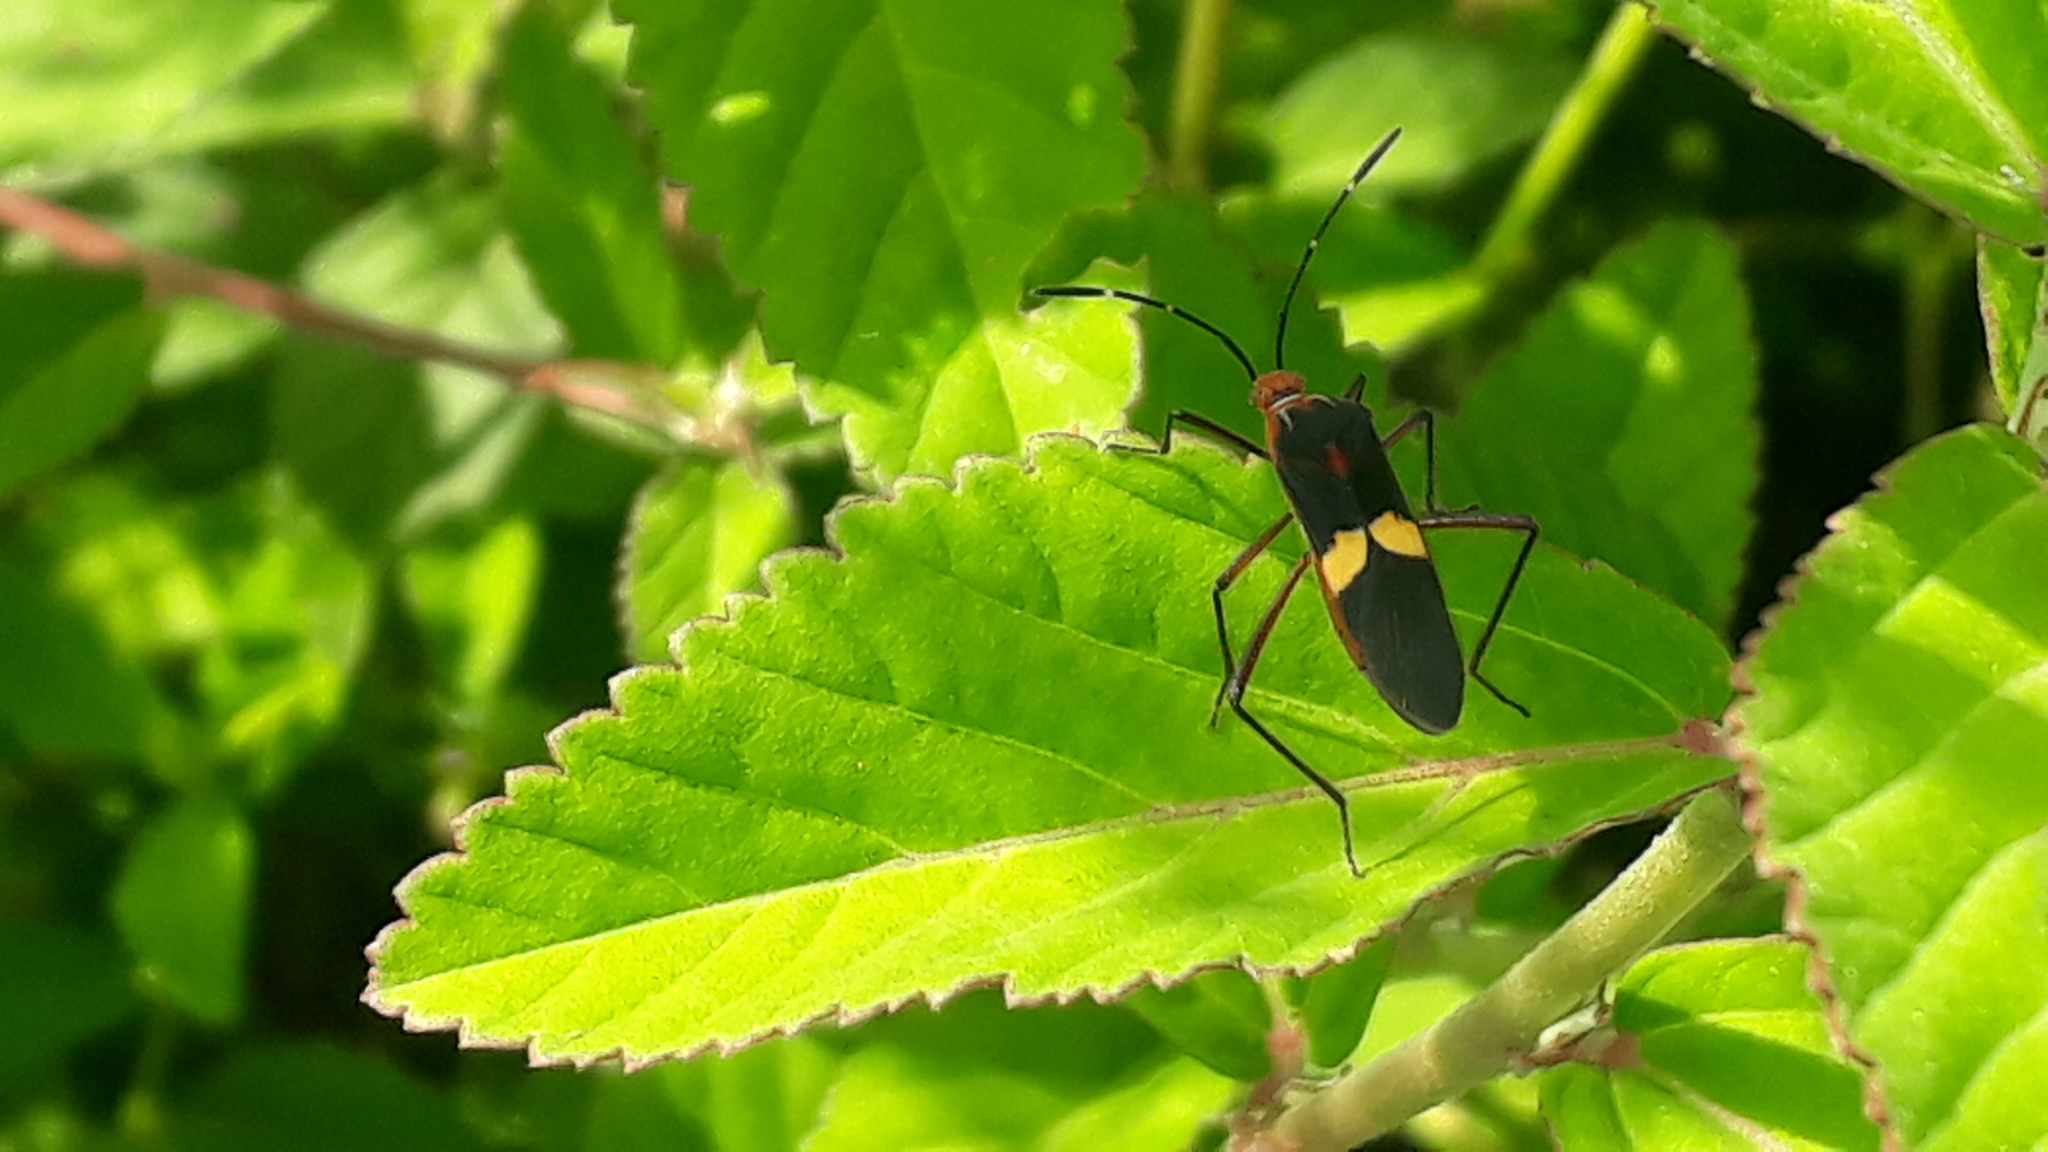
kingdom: Animalia
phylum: Arthropoda
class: Insecta
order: Hemiptera
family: Coreidae
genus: Hypselonotus
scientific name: Hypselonotus interruptus
